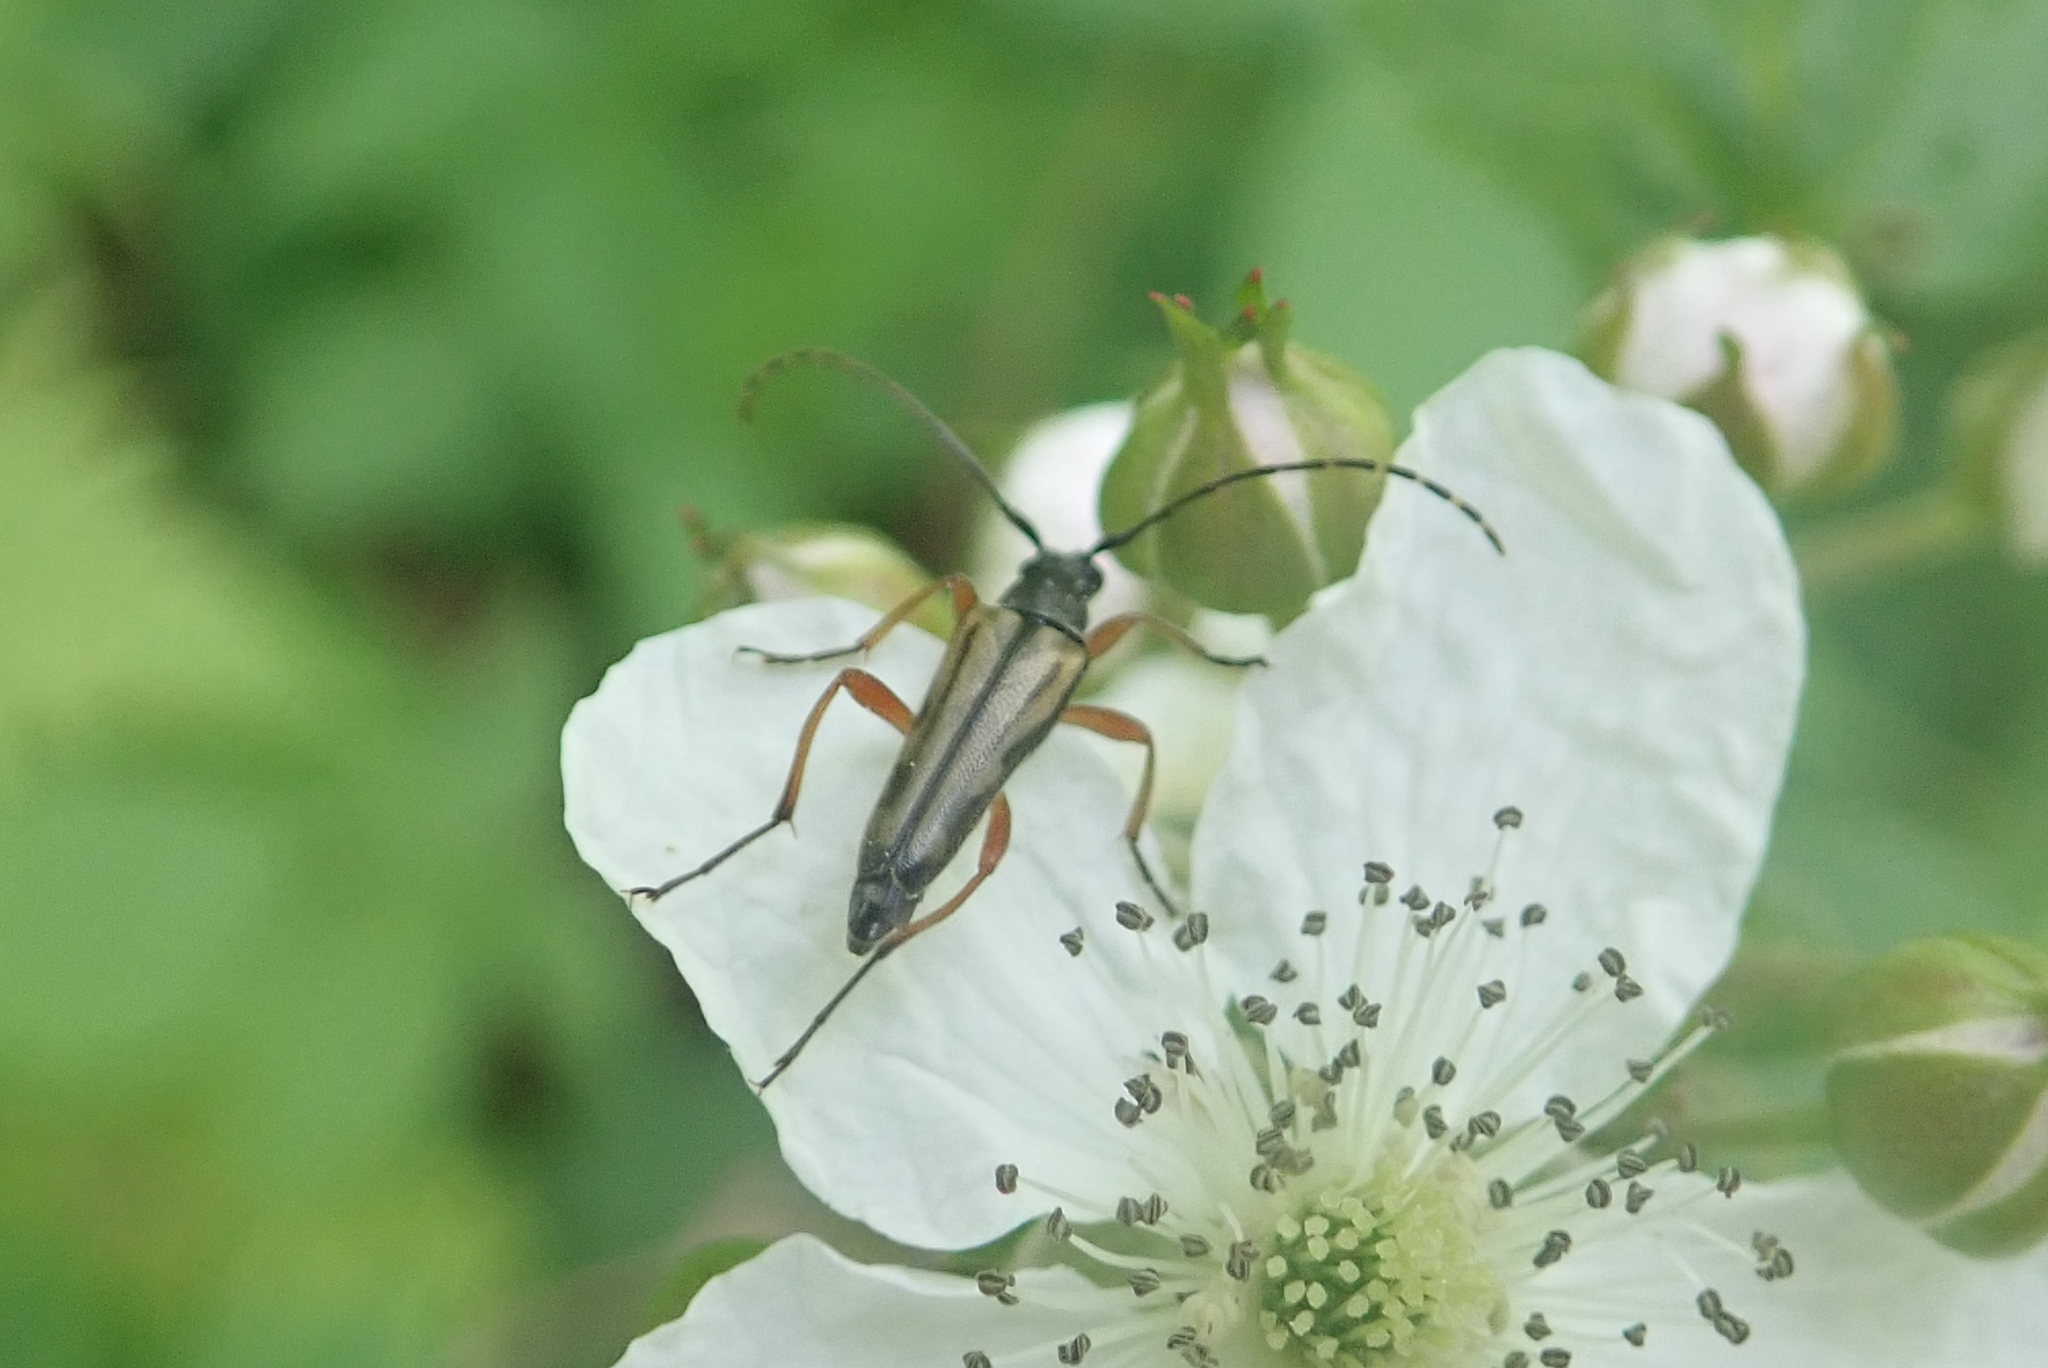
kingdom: Animalia
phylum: Arthropoda
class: Insecta
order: Coleoptera
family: Cerambycidae
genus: Analeptura
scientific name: Analeptura lineola
